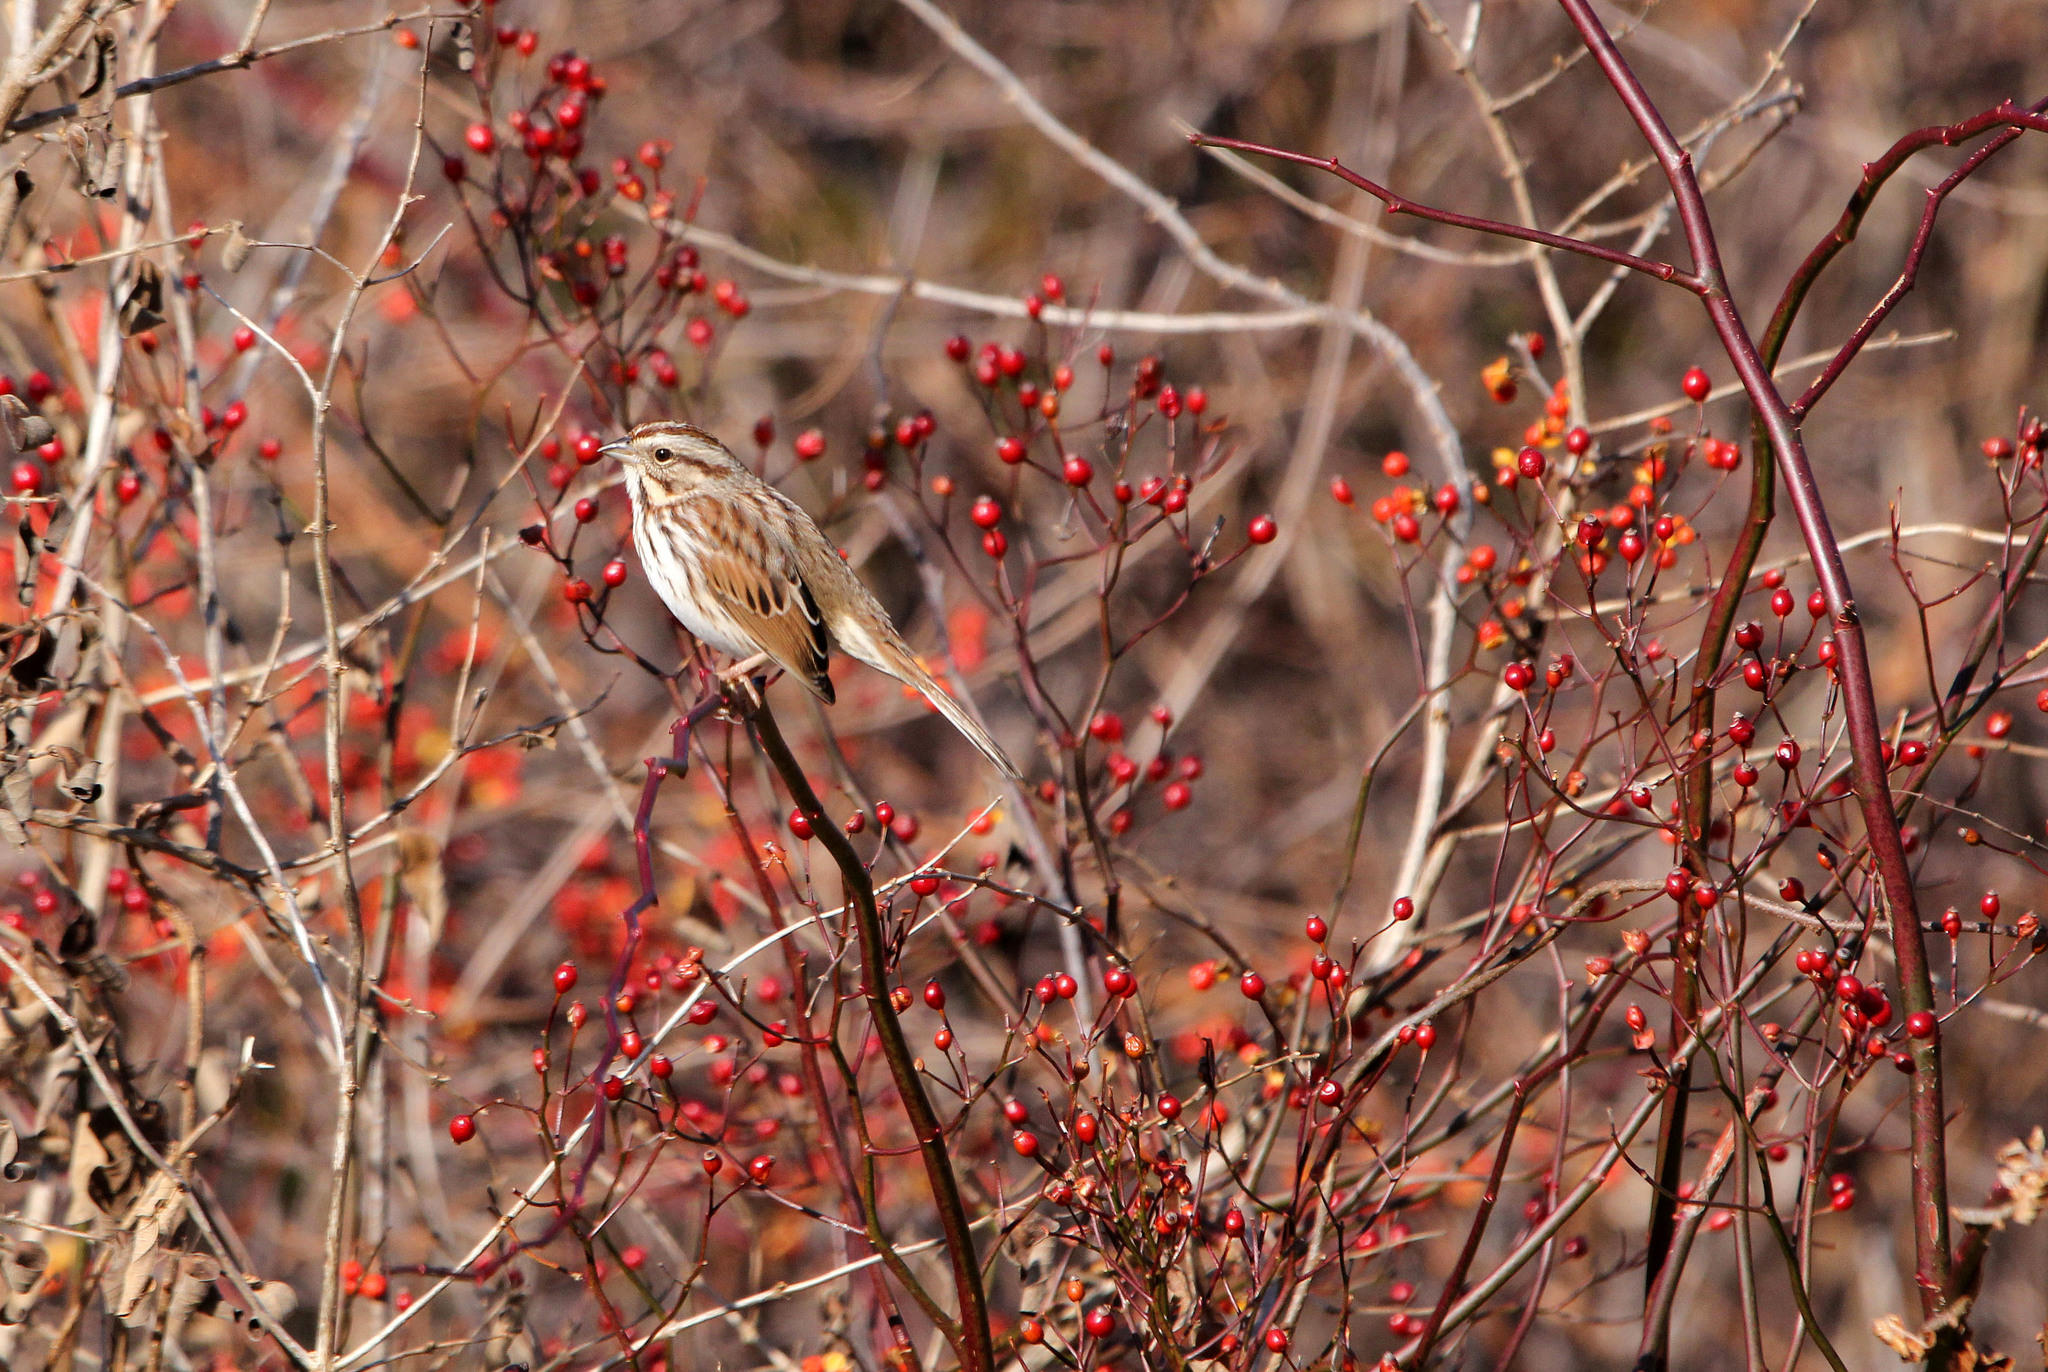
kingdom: Animalia
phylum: Chordata
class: Aves
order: Passeriformes
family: Passerellidae
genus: Melospiza
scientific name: Melospiza melodia
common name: Song sparrow
